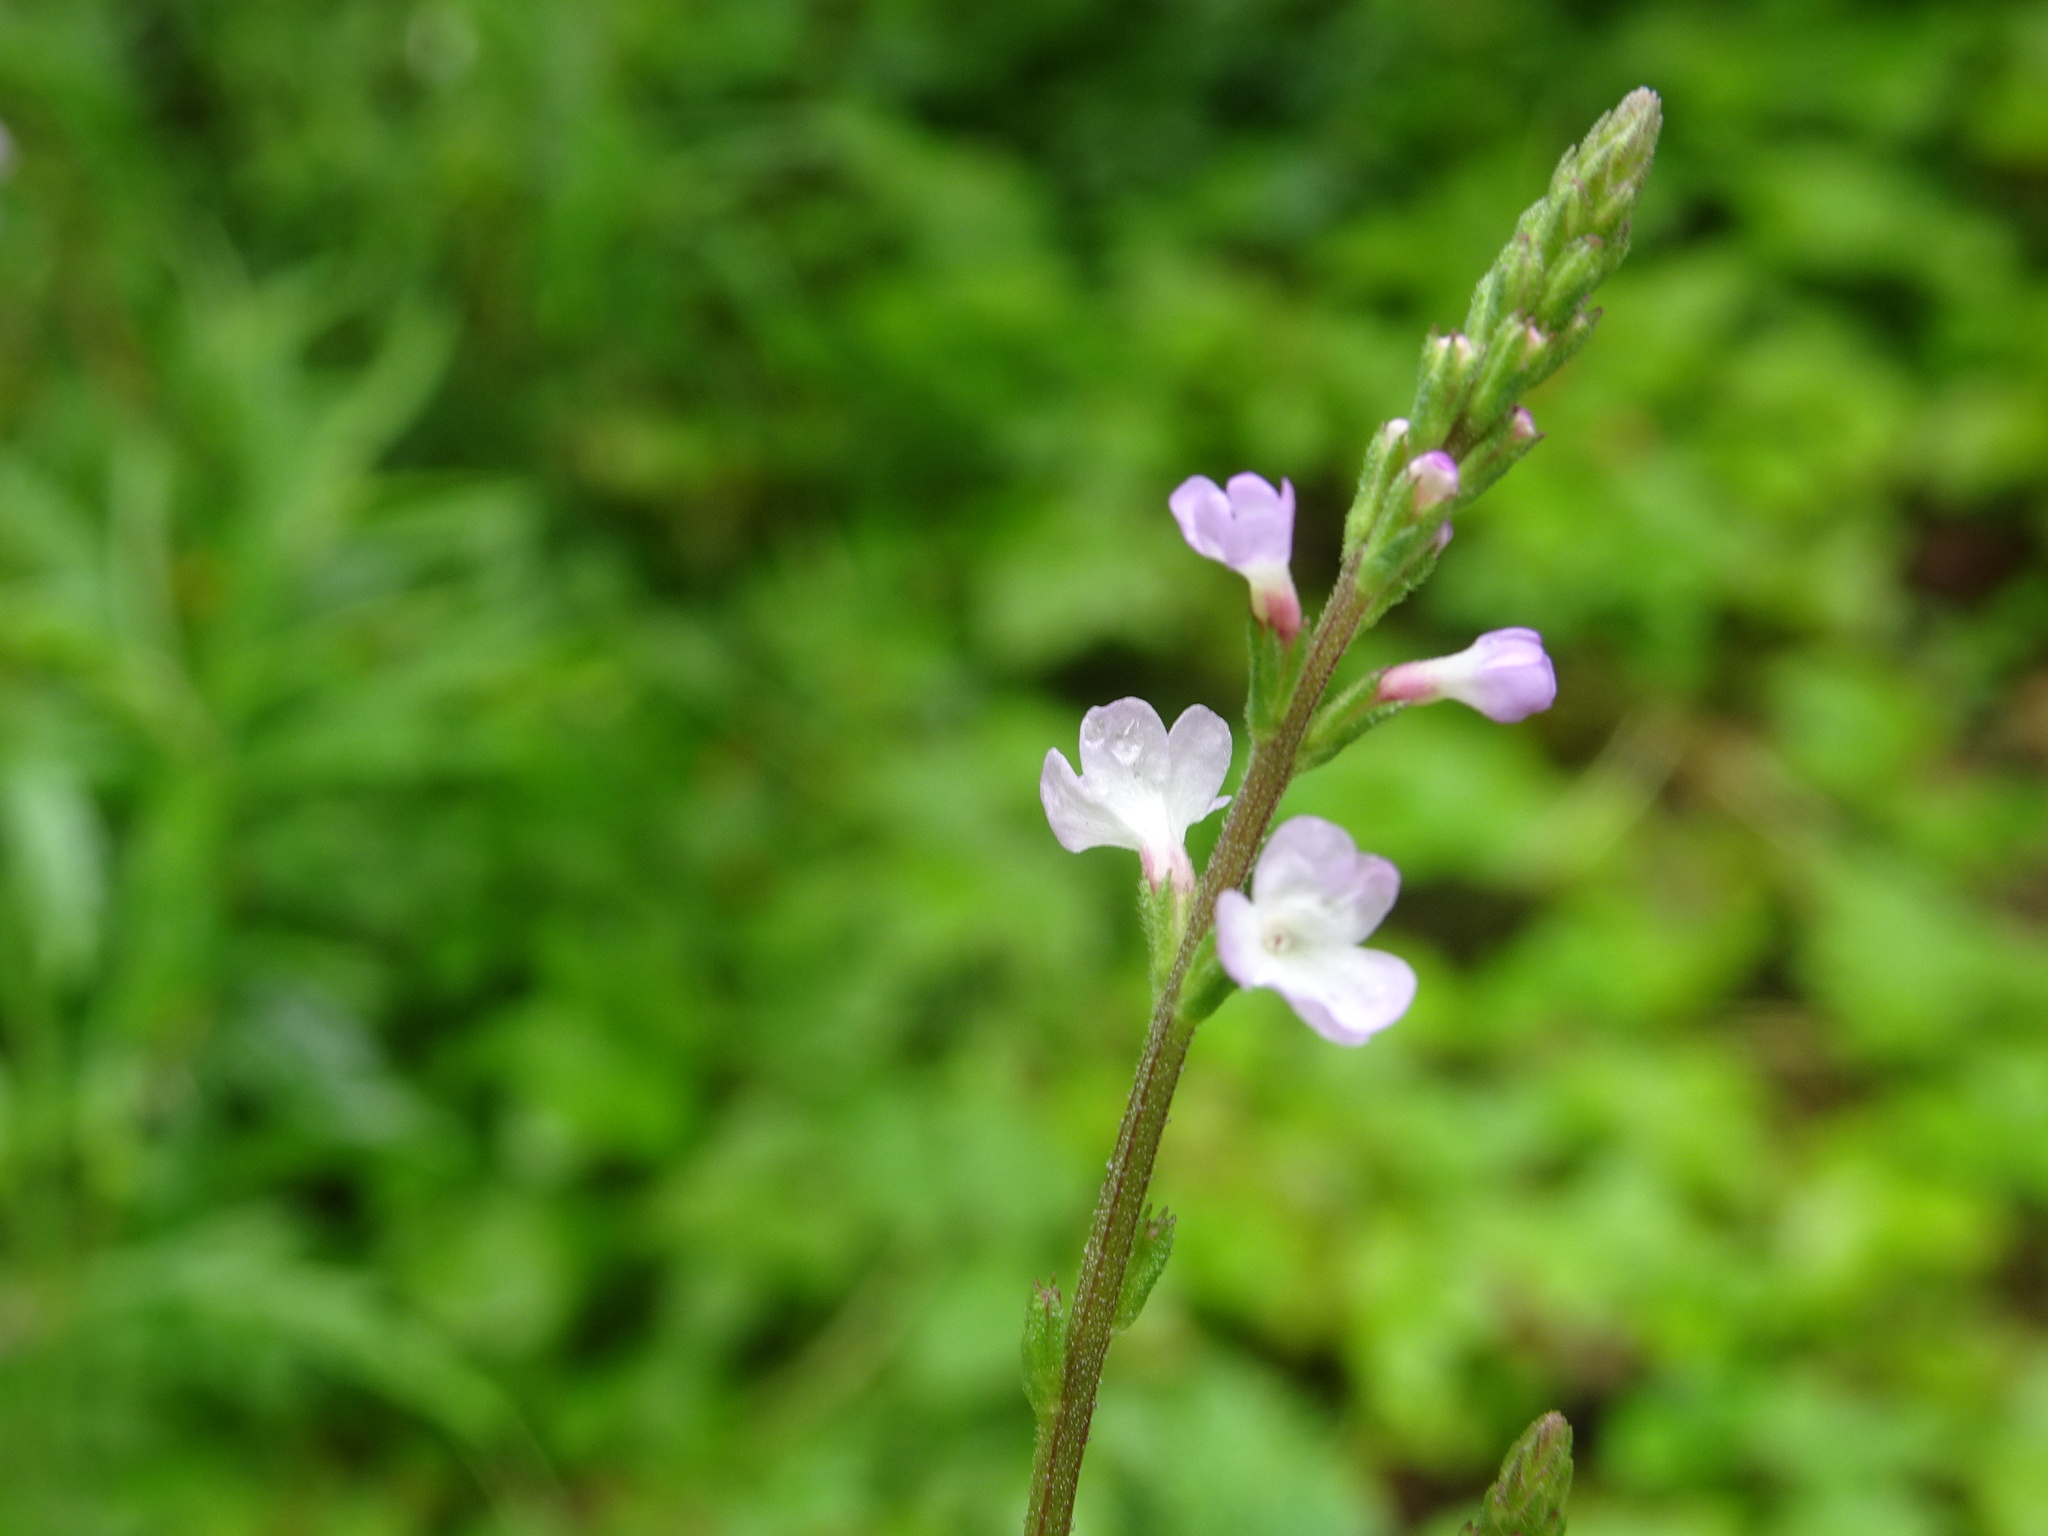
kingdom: Plantae
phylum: Tracheophyta
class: Magnoliopsida
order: Lamiales
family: Verbenaceae
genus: Verbena
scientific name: Verbena officinalis
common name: Vervain
